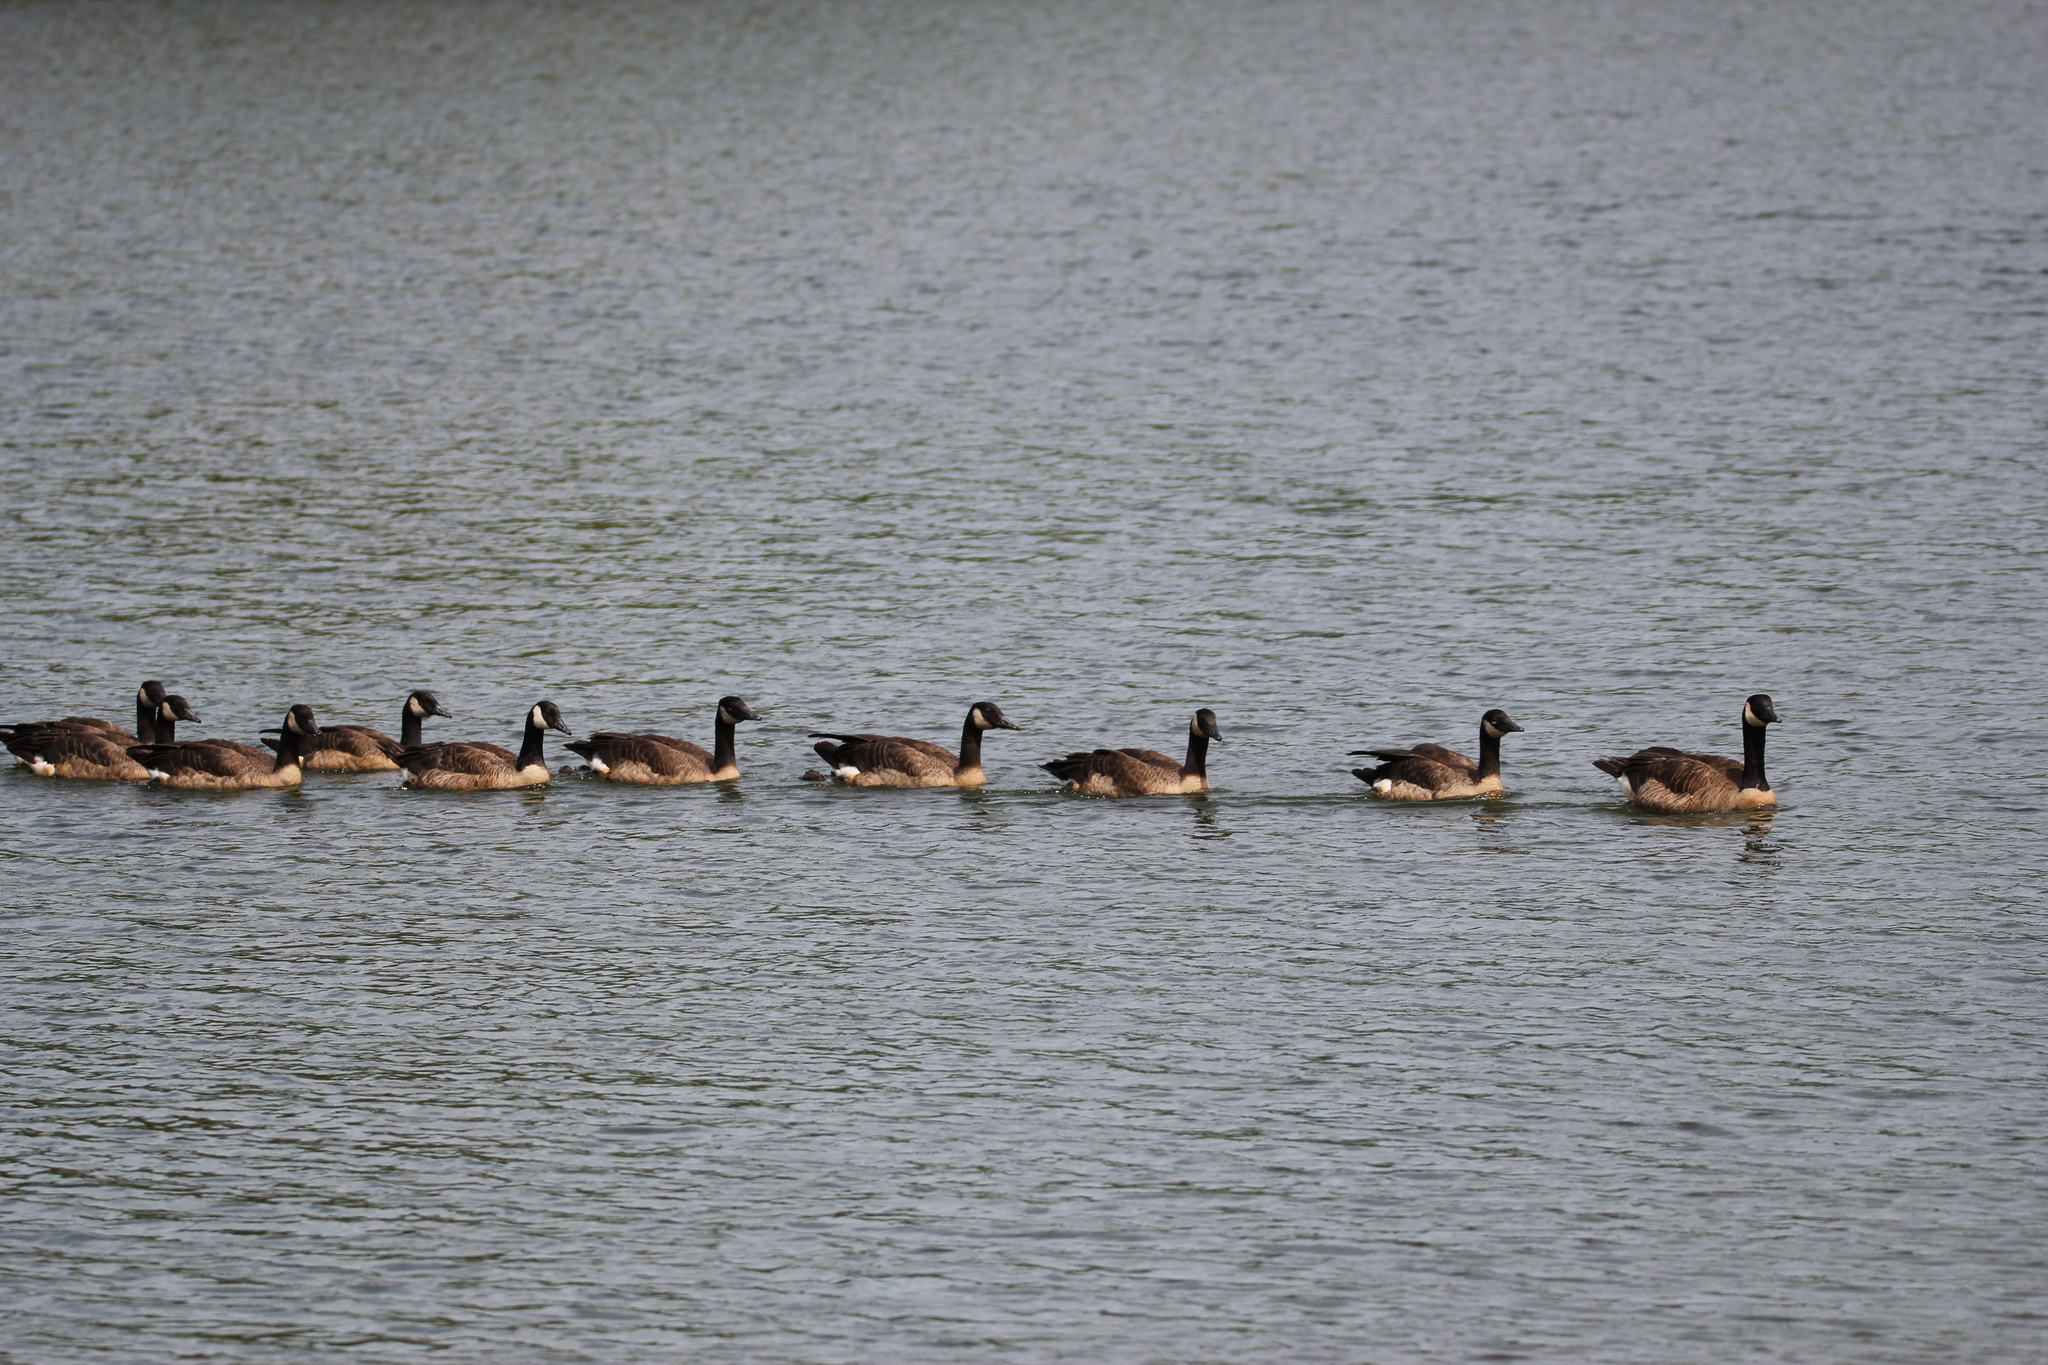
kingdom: Animalia
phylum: Chordata
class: Aves
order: Anseriformes
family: Anatidae
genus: Branta
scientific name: Branta canadensis
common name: Canada goose
